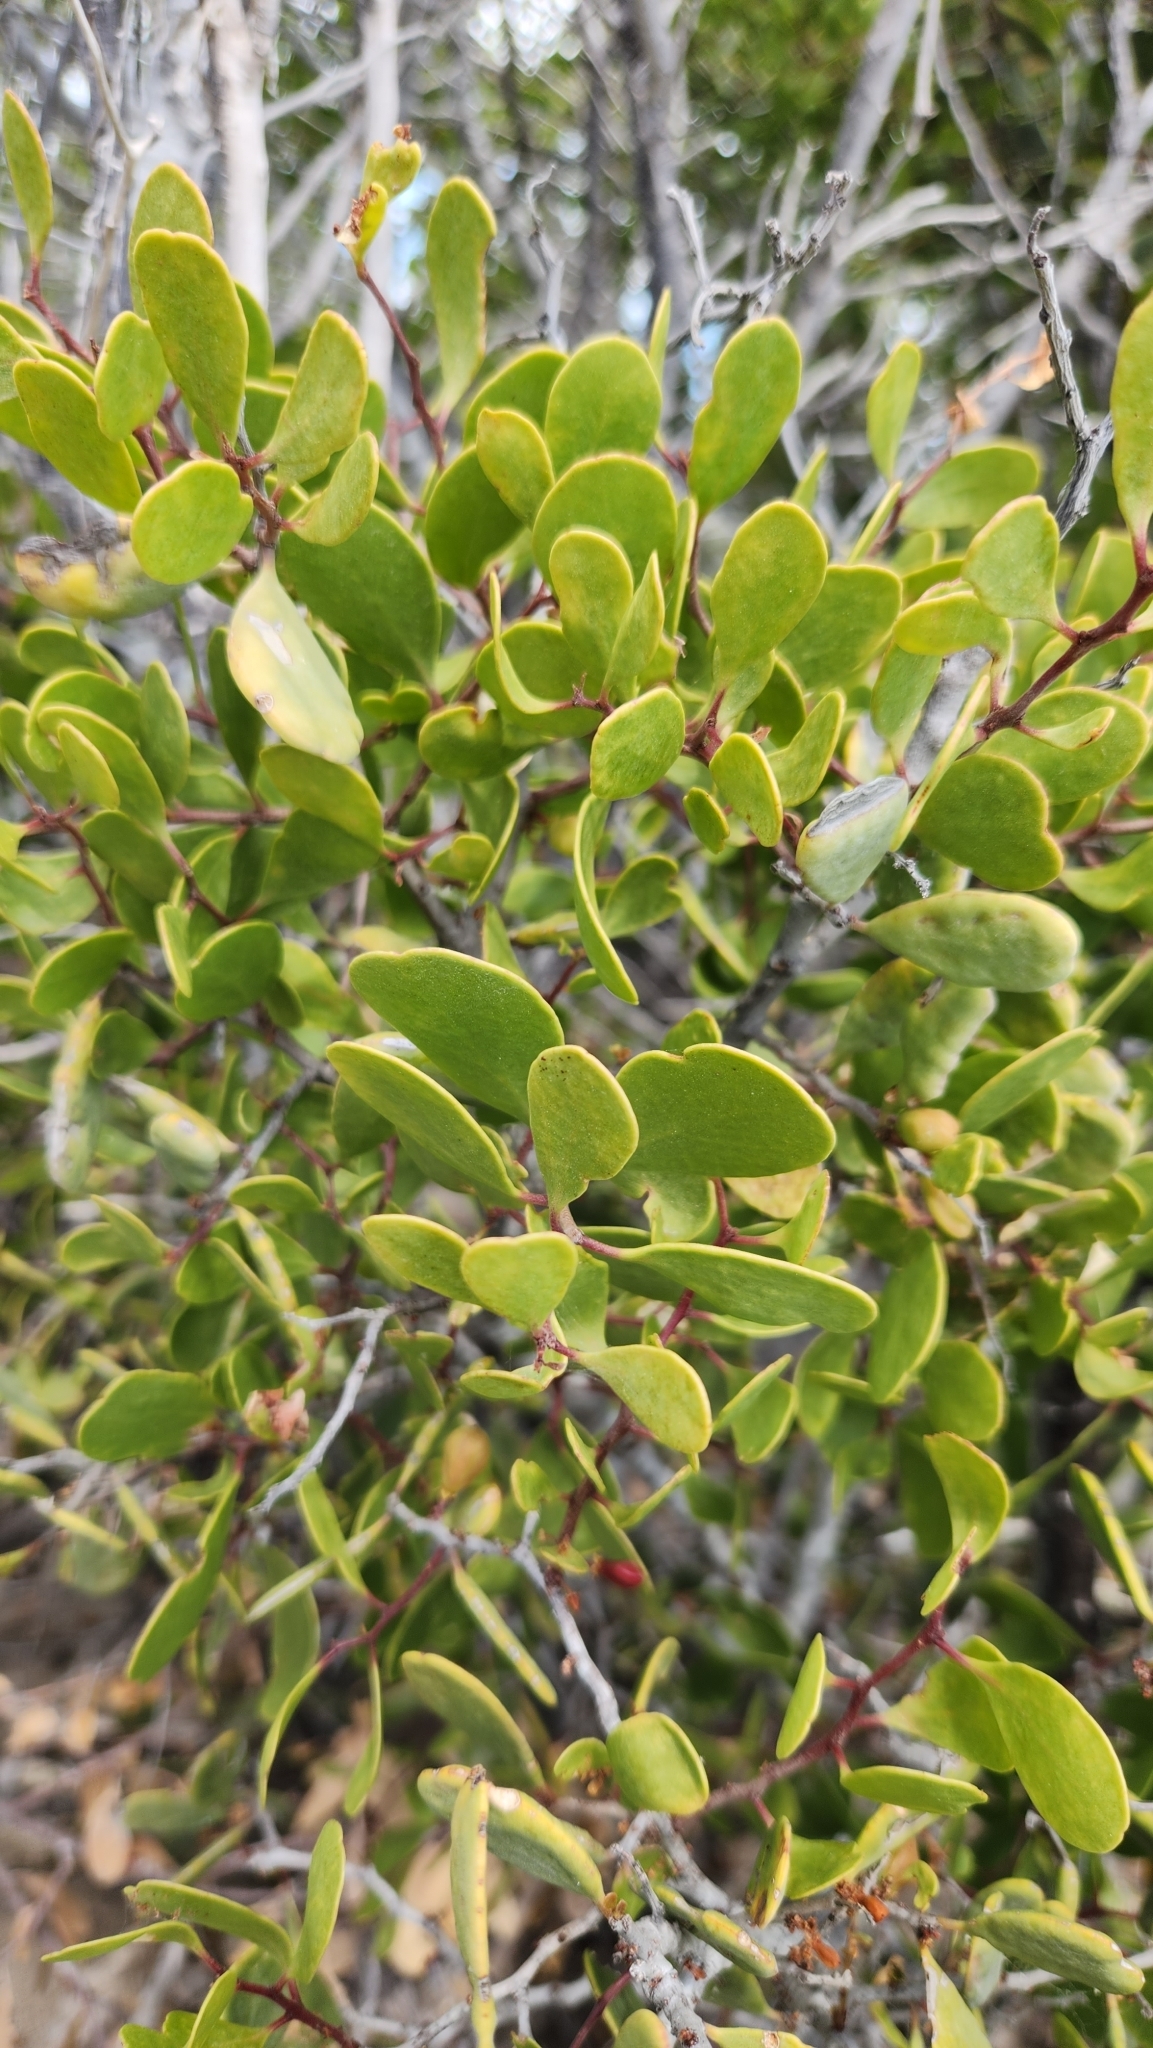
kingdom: Plantae
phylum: Tracheophyta
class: Magnoliopsida
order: Celastrales
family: Celastraceae
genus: Tricerma
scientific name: Tricerma phyllanthoides
